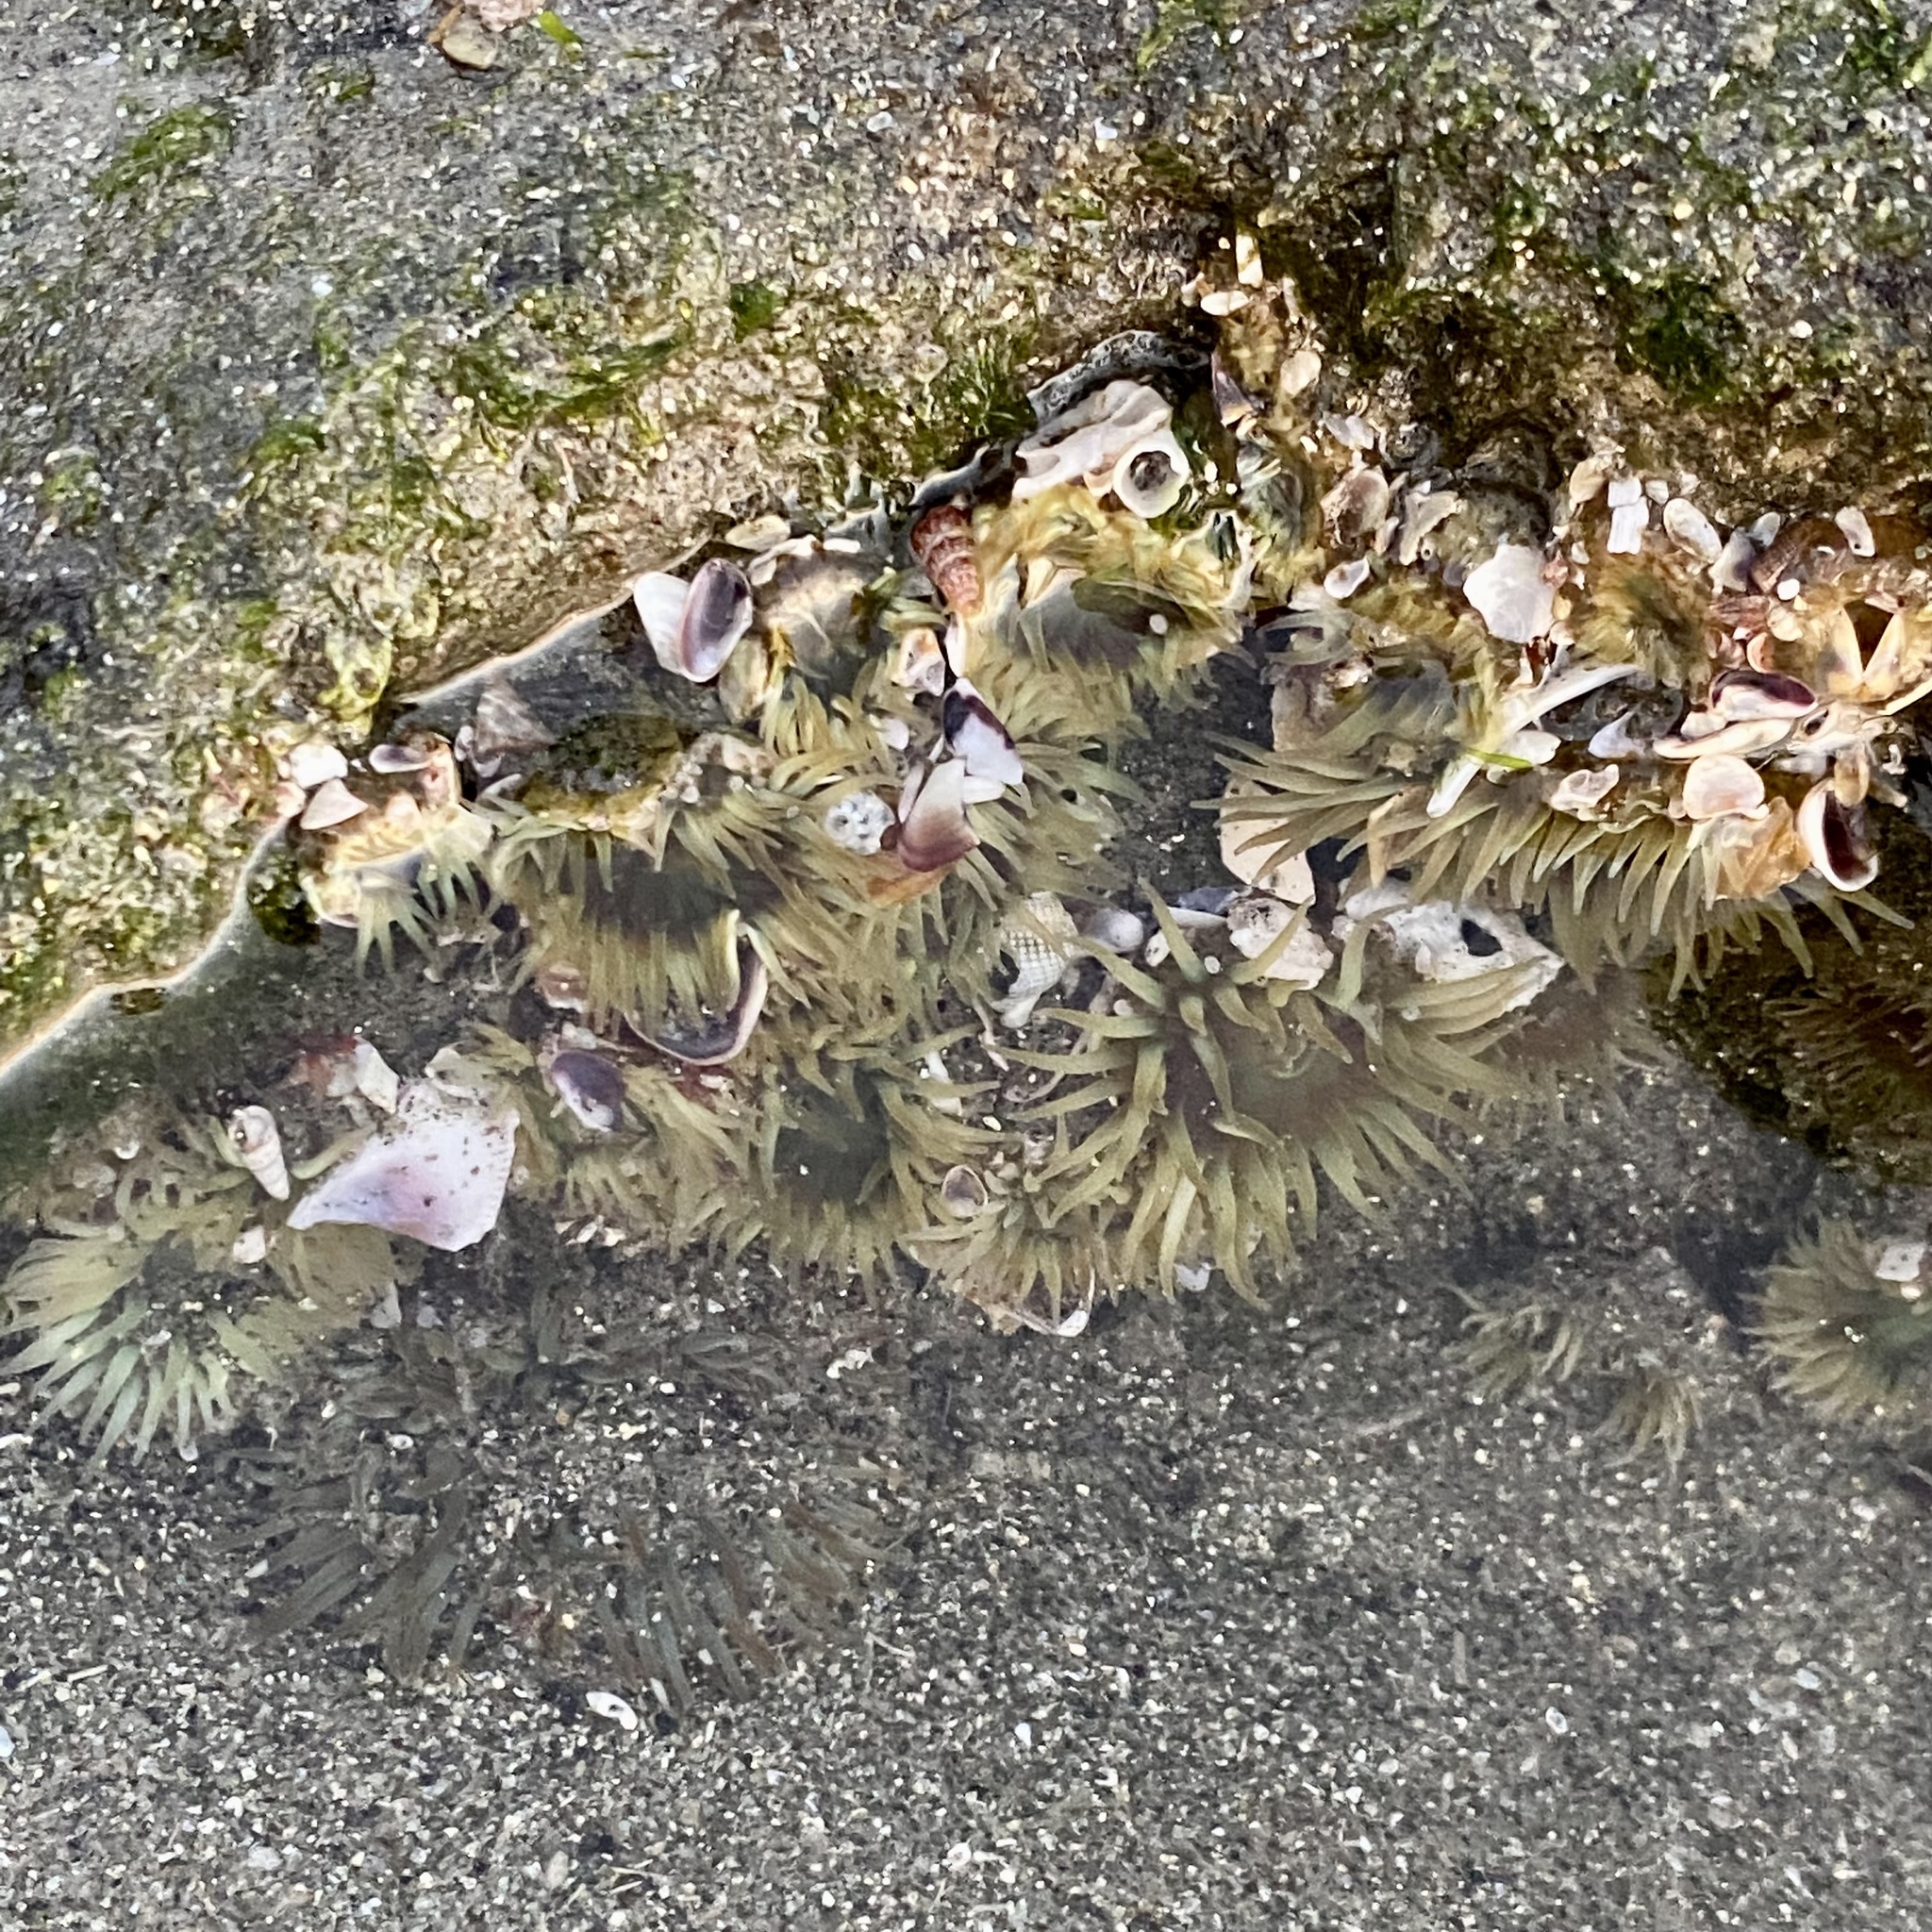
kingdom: Animalia
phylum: Cnidaria
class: Anthozoa
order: Actiniaria
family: Actiniidae
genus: Anthopleura
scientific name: Anthopleura elegantissima
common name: Clonal anemone
